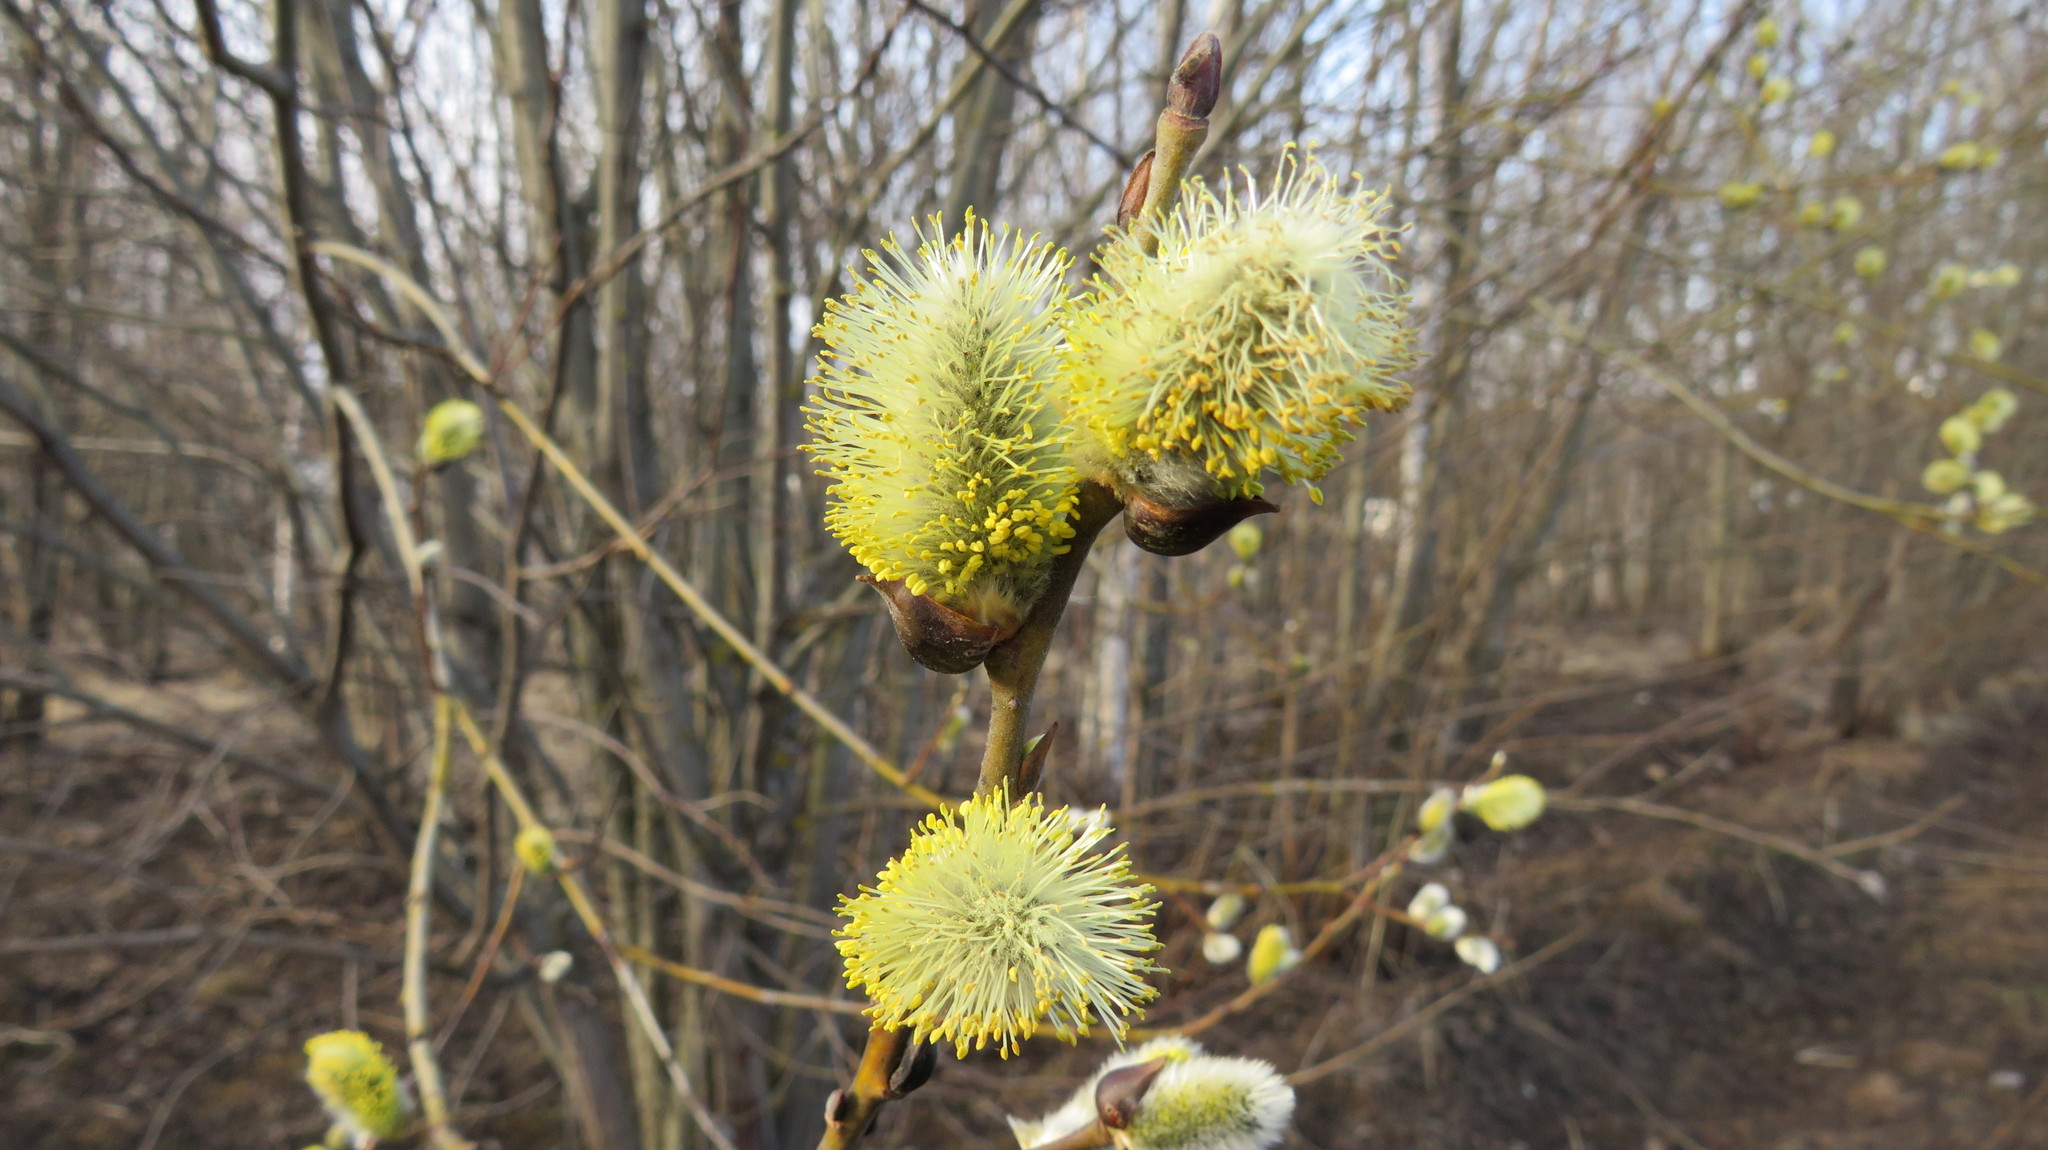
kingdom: Plantae
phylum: Tracheophyta
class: Magnoliopsida
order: Malpighiales
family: Salicaceae
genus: Salix
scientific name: Salix caprea
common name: Goat willow
